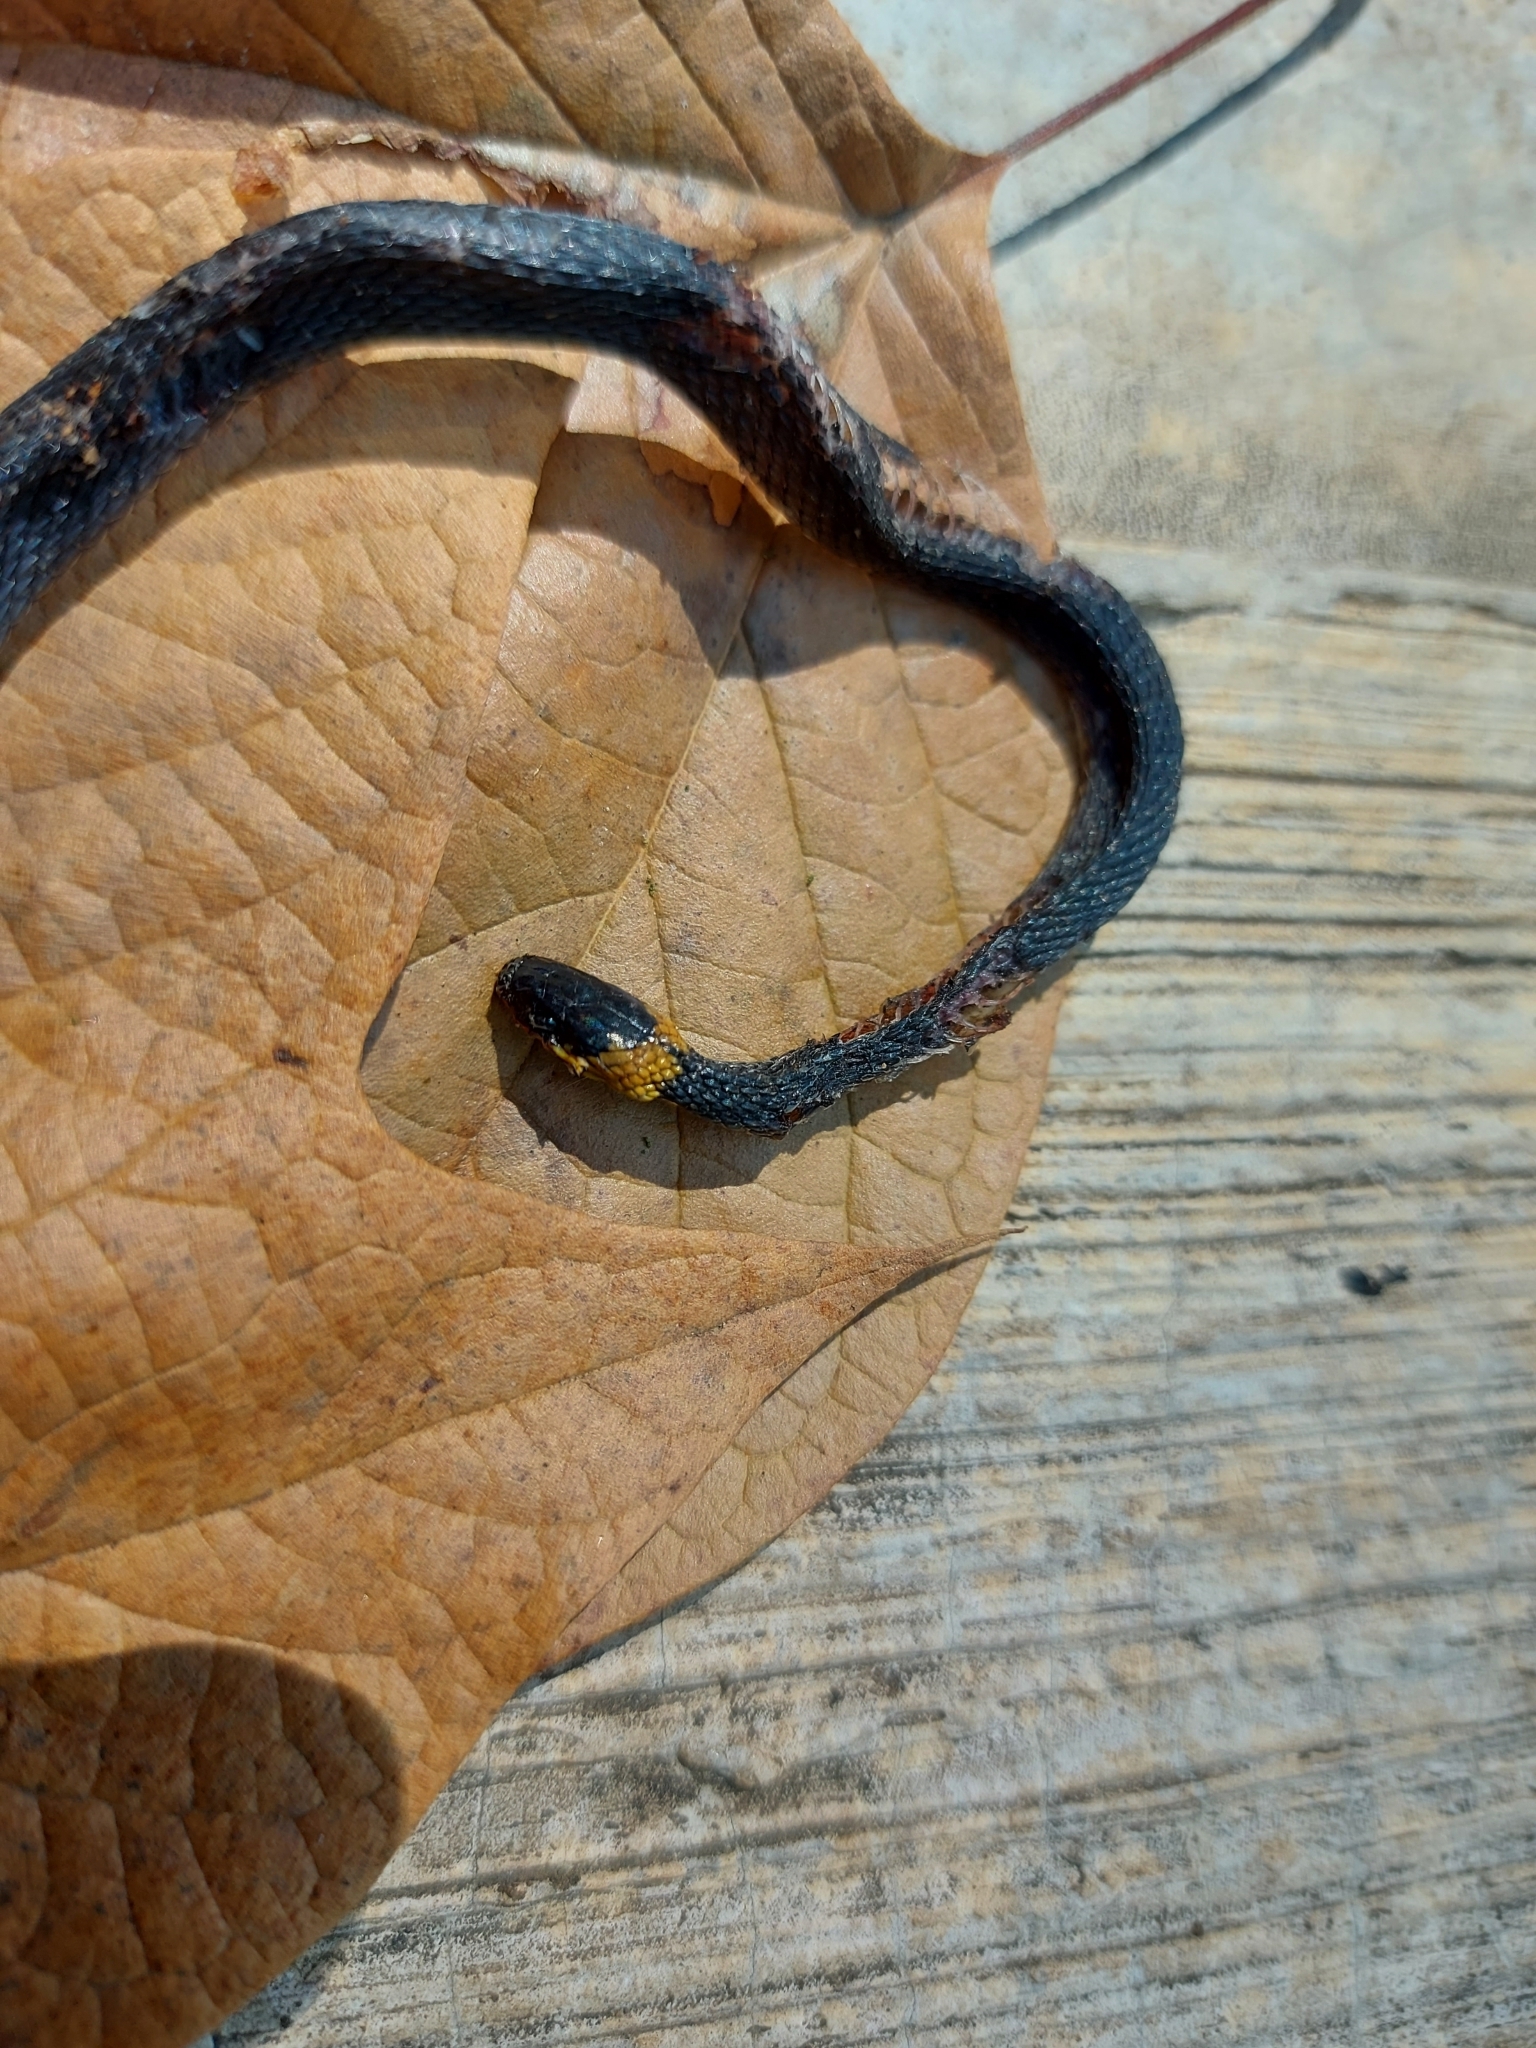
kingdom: Animalia
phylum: Chordata
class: Squamata
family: Colubridae
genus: Ninia
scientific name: Ninia diademata
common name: Ringneck coffee snake
